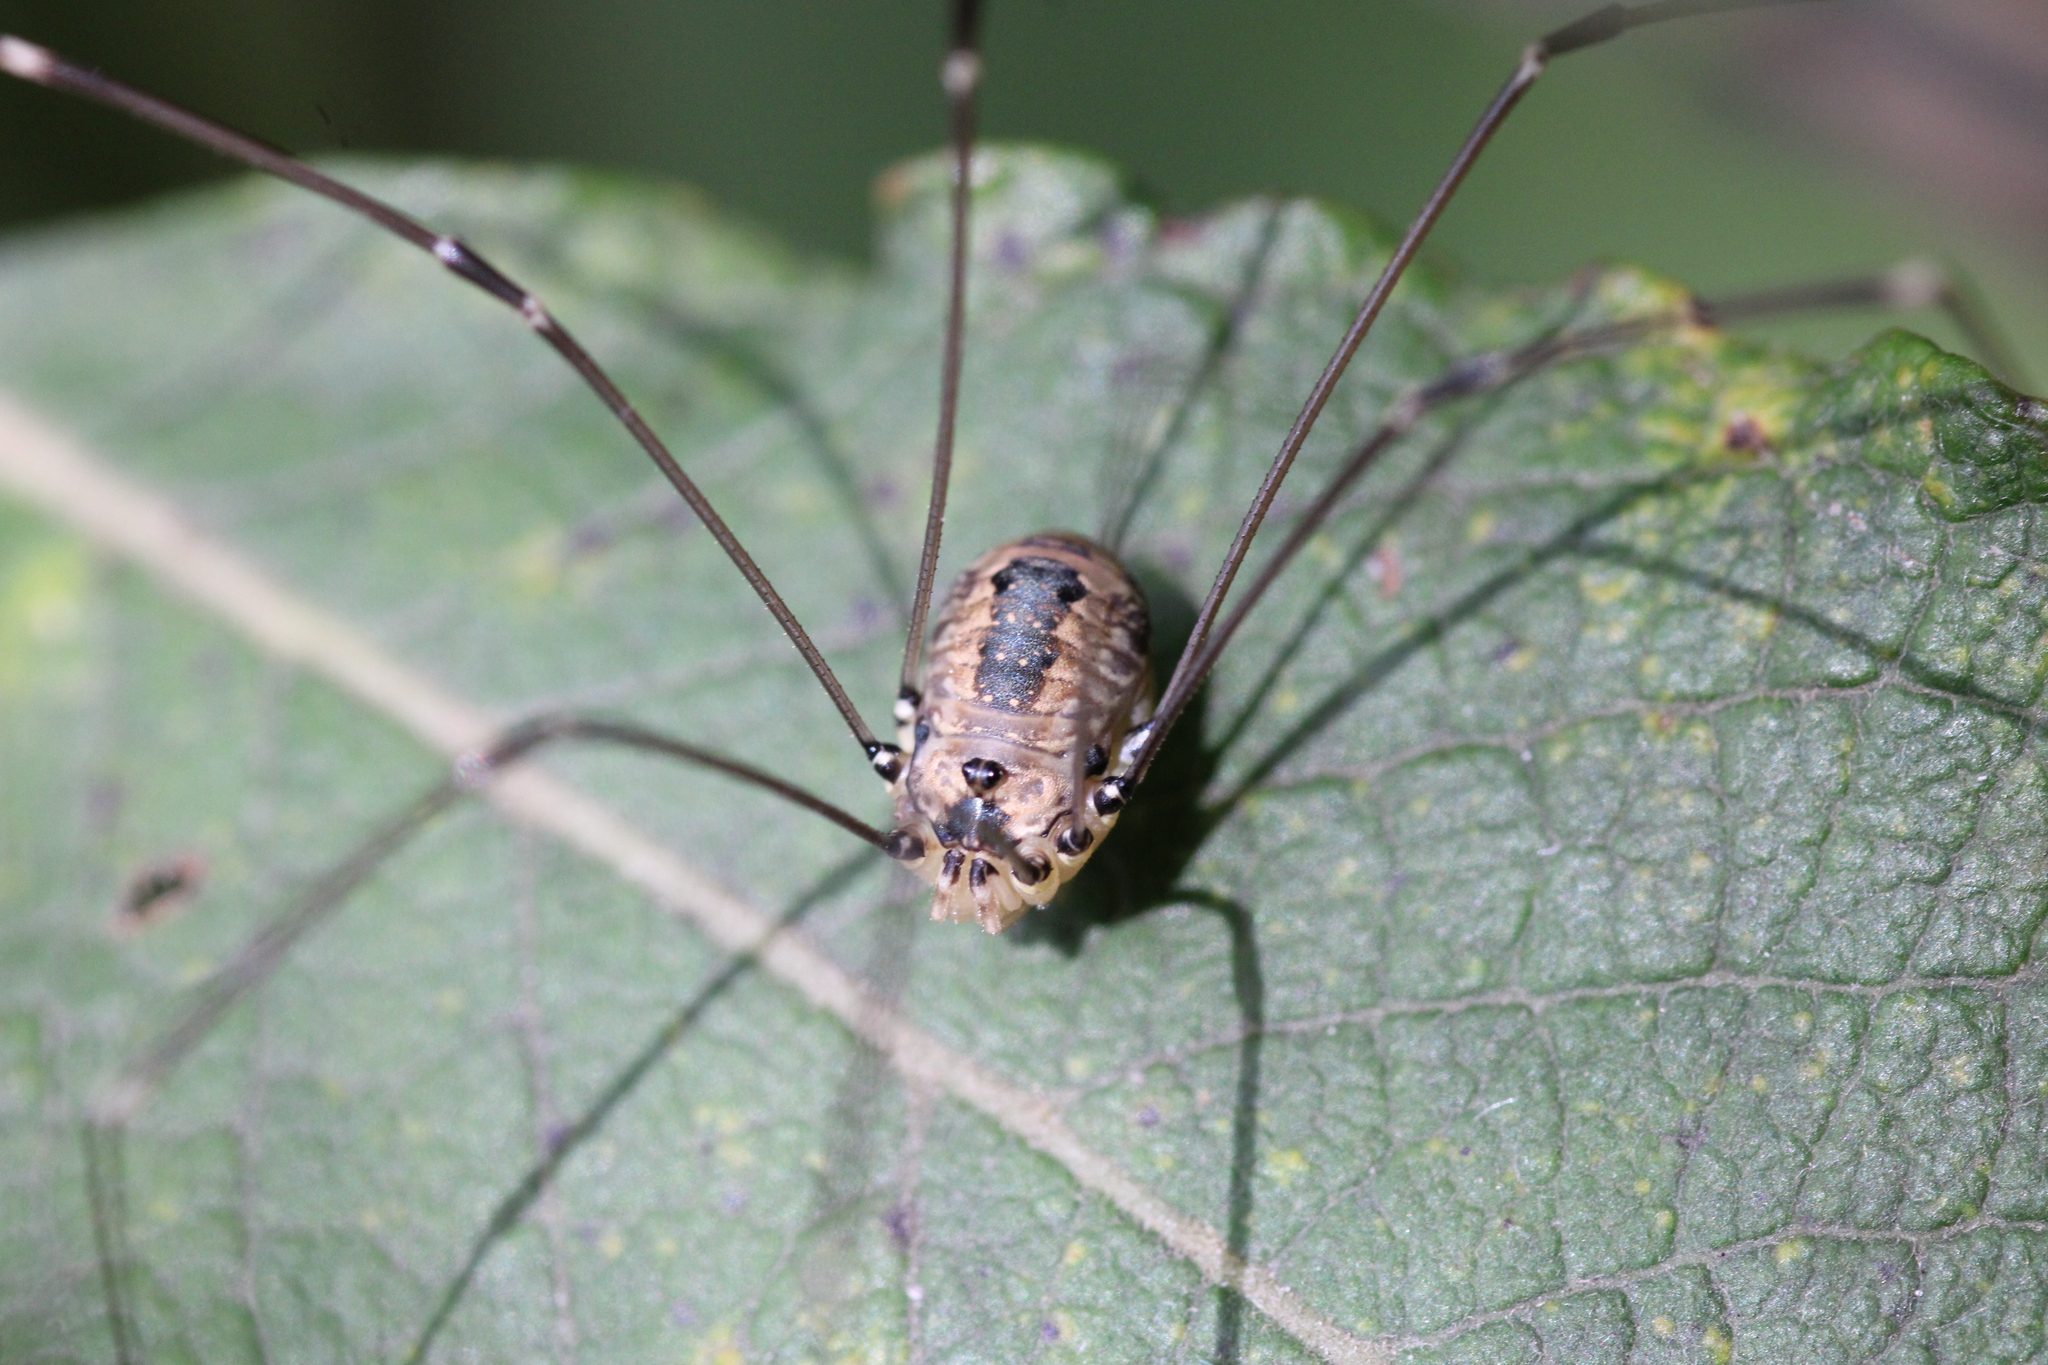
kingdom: Animalia
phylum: Arthropoda
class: Arachnida
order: Opiliones
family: Sclerosomatidae
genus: Leiobunum
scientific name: Leiobunum rotundum
